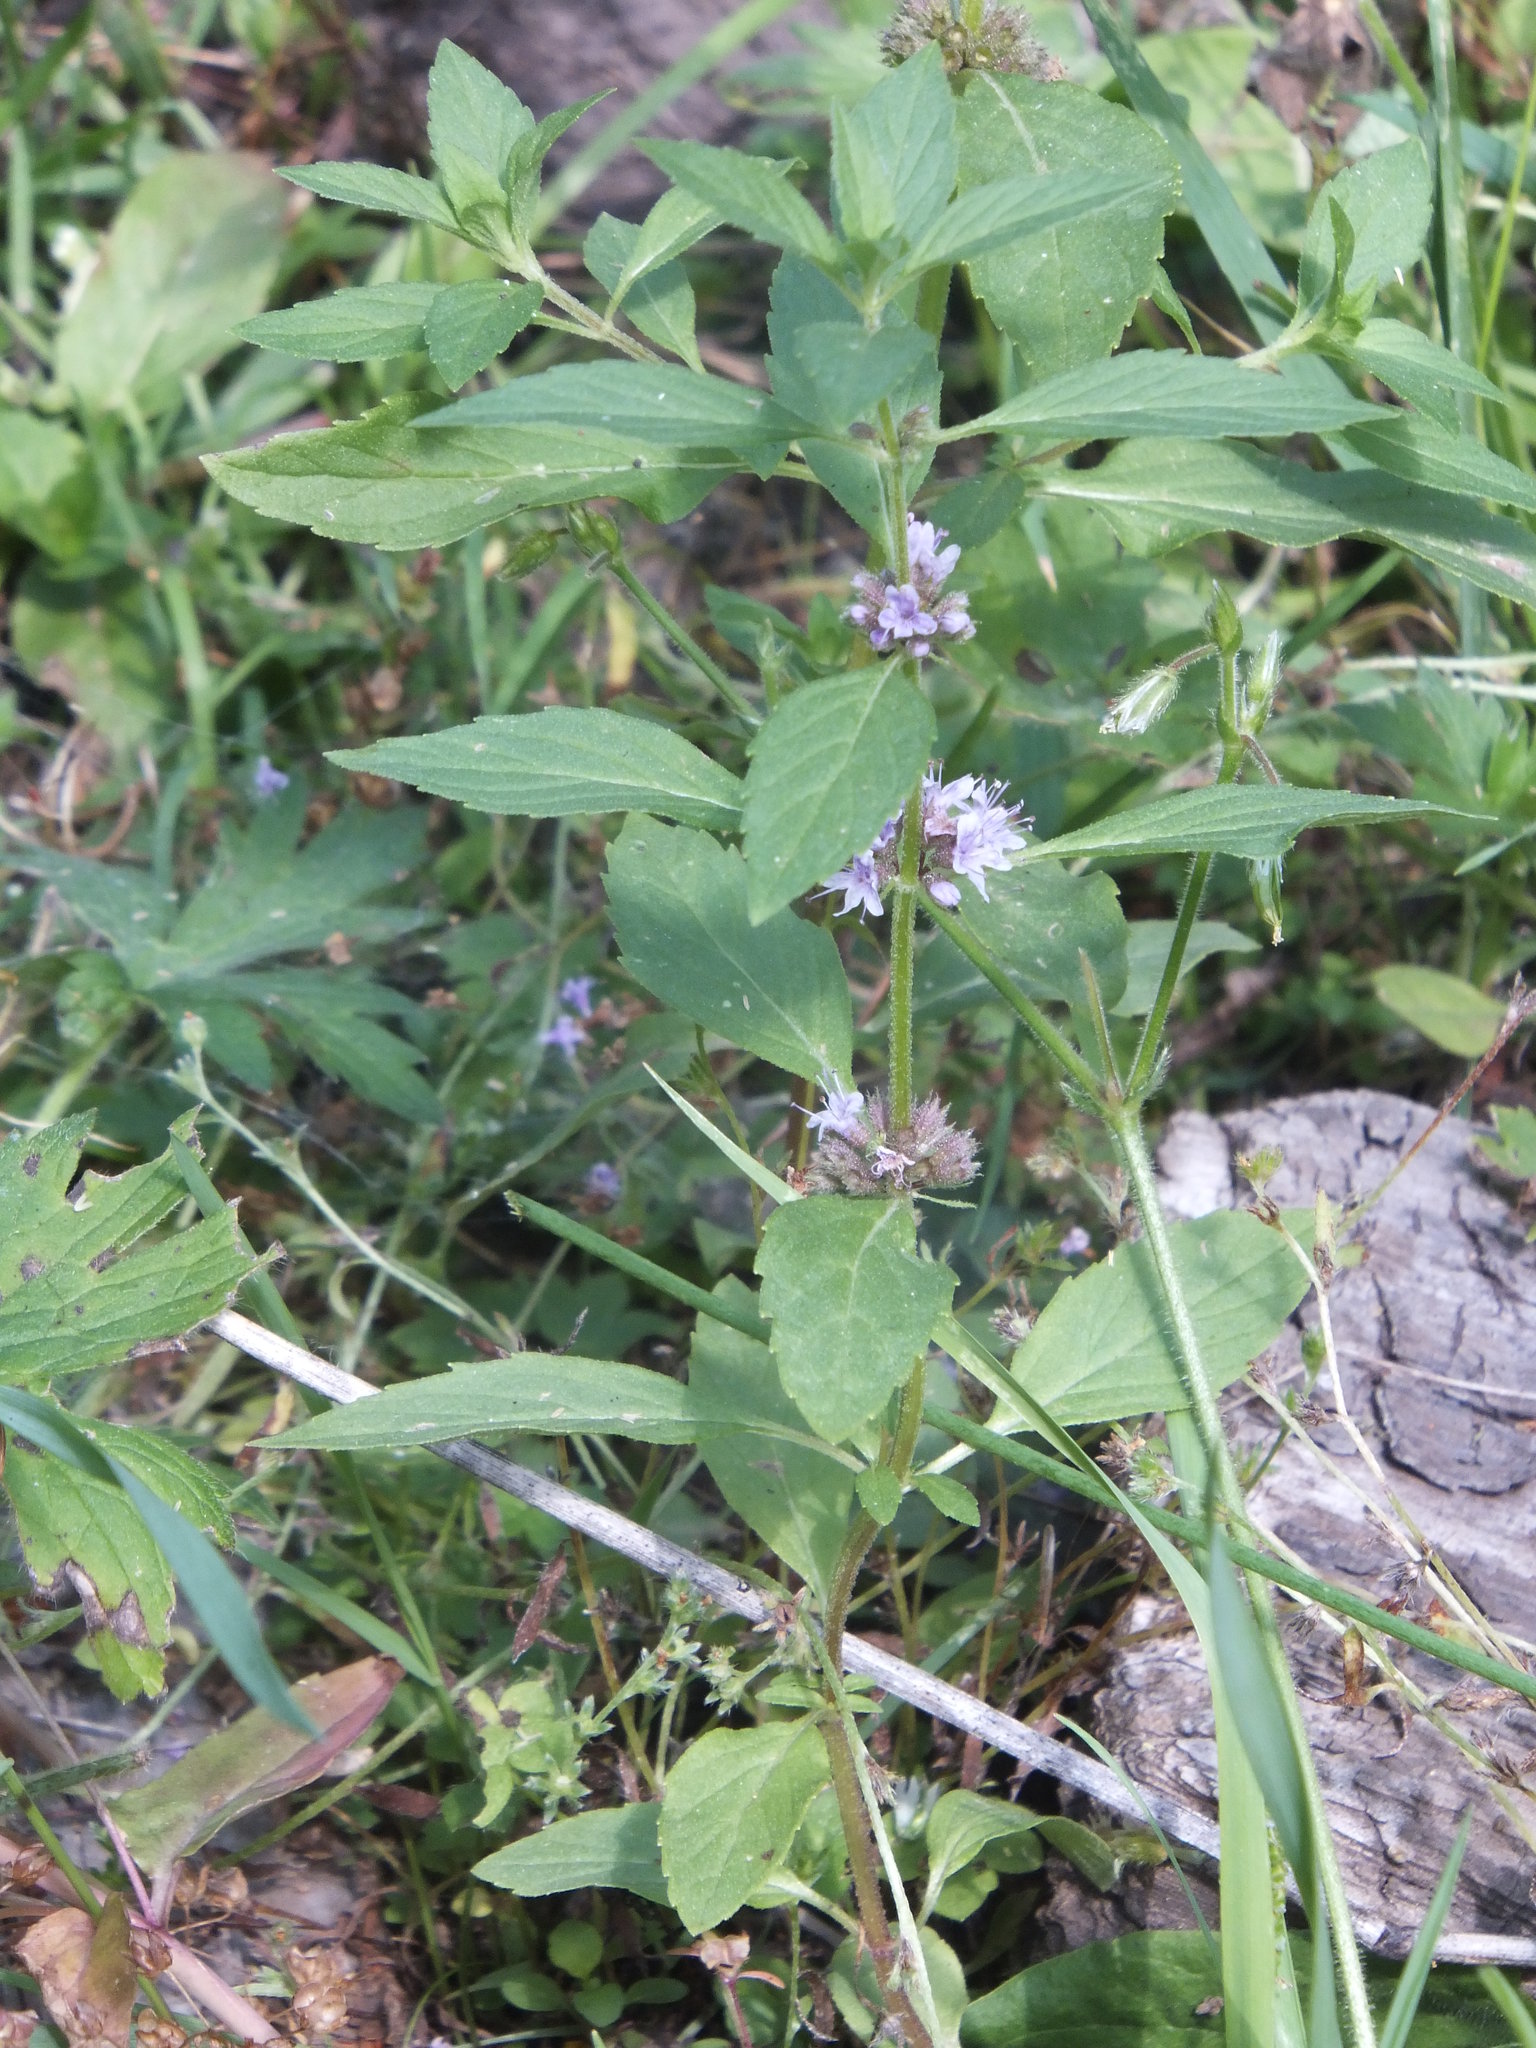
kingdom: Plantae
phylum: Tracheophyta
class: Magnoliopsida
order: Lamiales
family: Lamiaceae
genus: Mentha
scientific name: Mentha canadensis
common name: American corn mint
